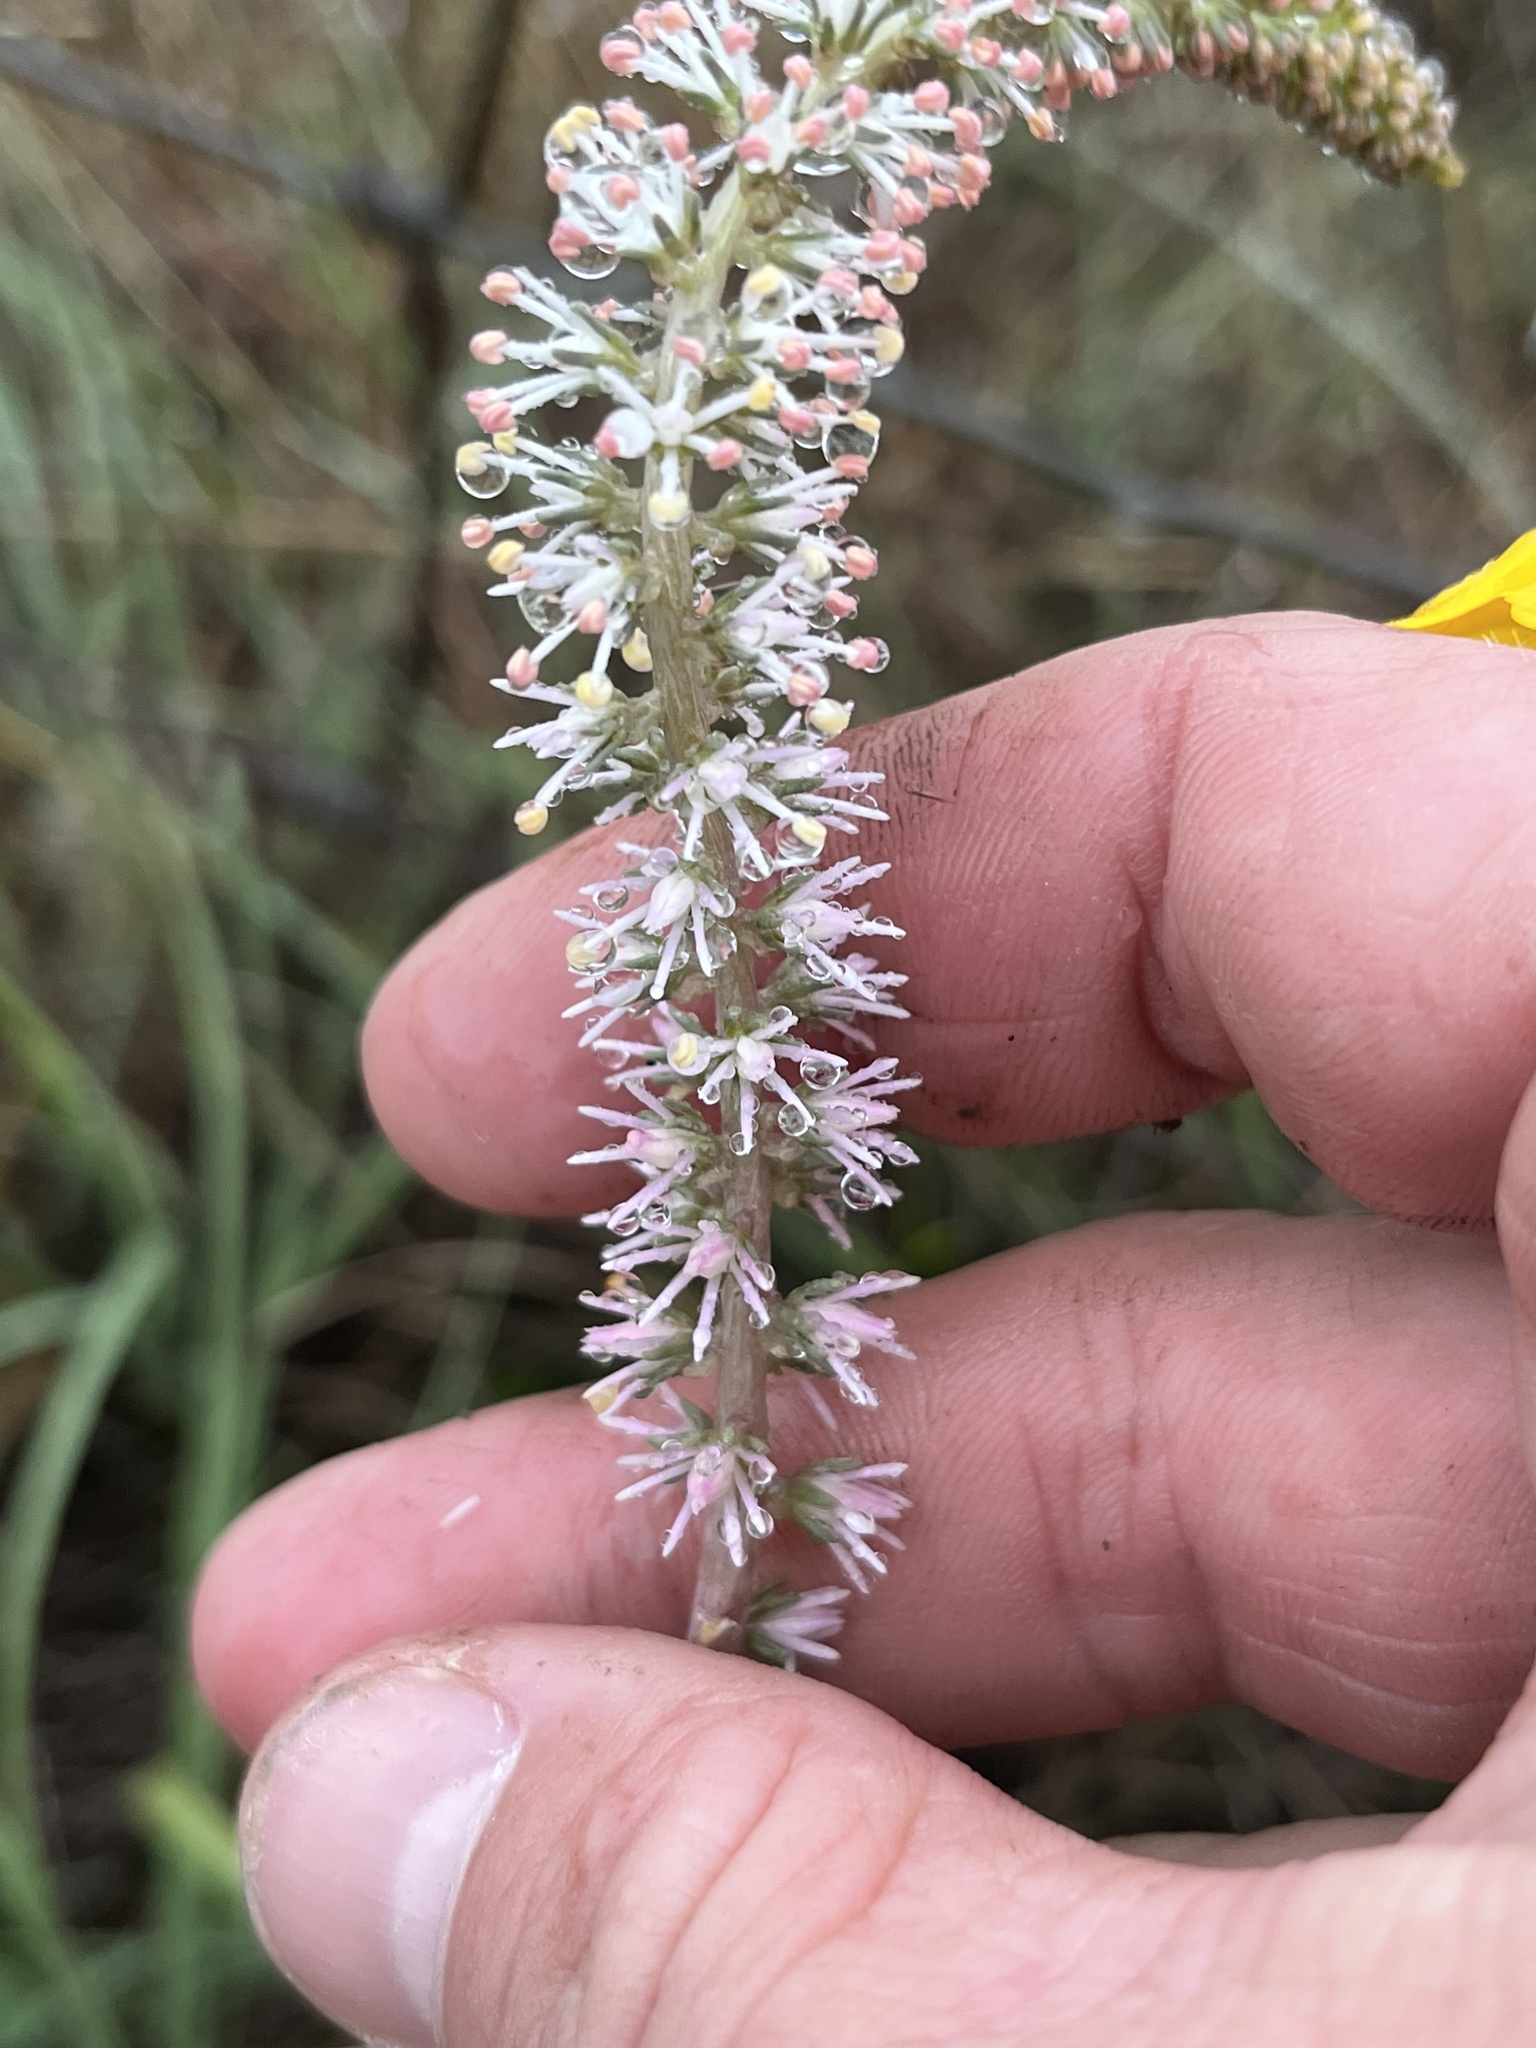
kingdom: Plantae
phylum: Tracheophyta
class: Liliopsida
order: Liliales
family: Melanthiaceae
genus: Schoenocaulon
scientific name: Schoenocaulon texanum
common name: Texas feather-shank
